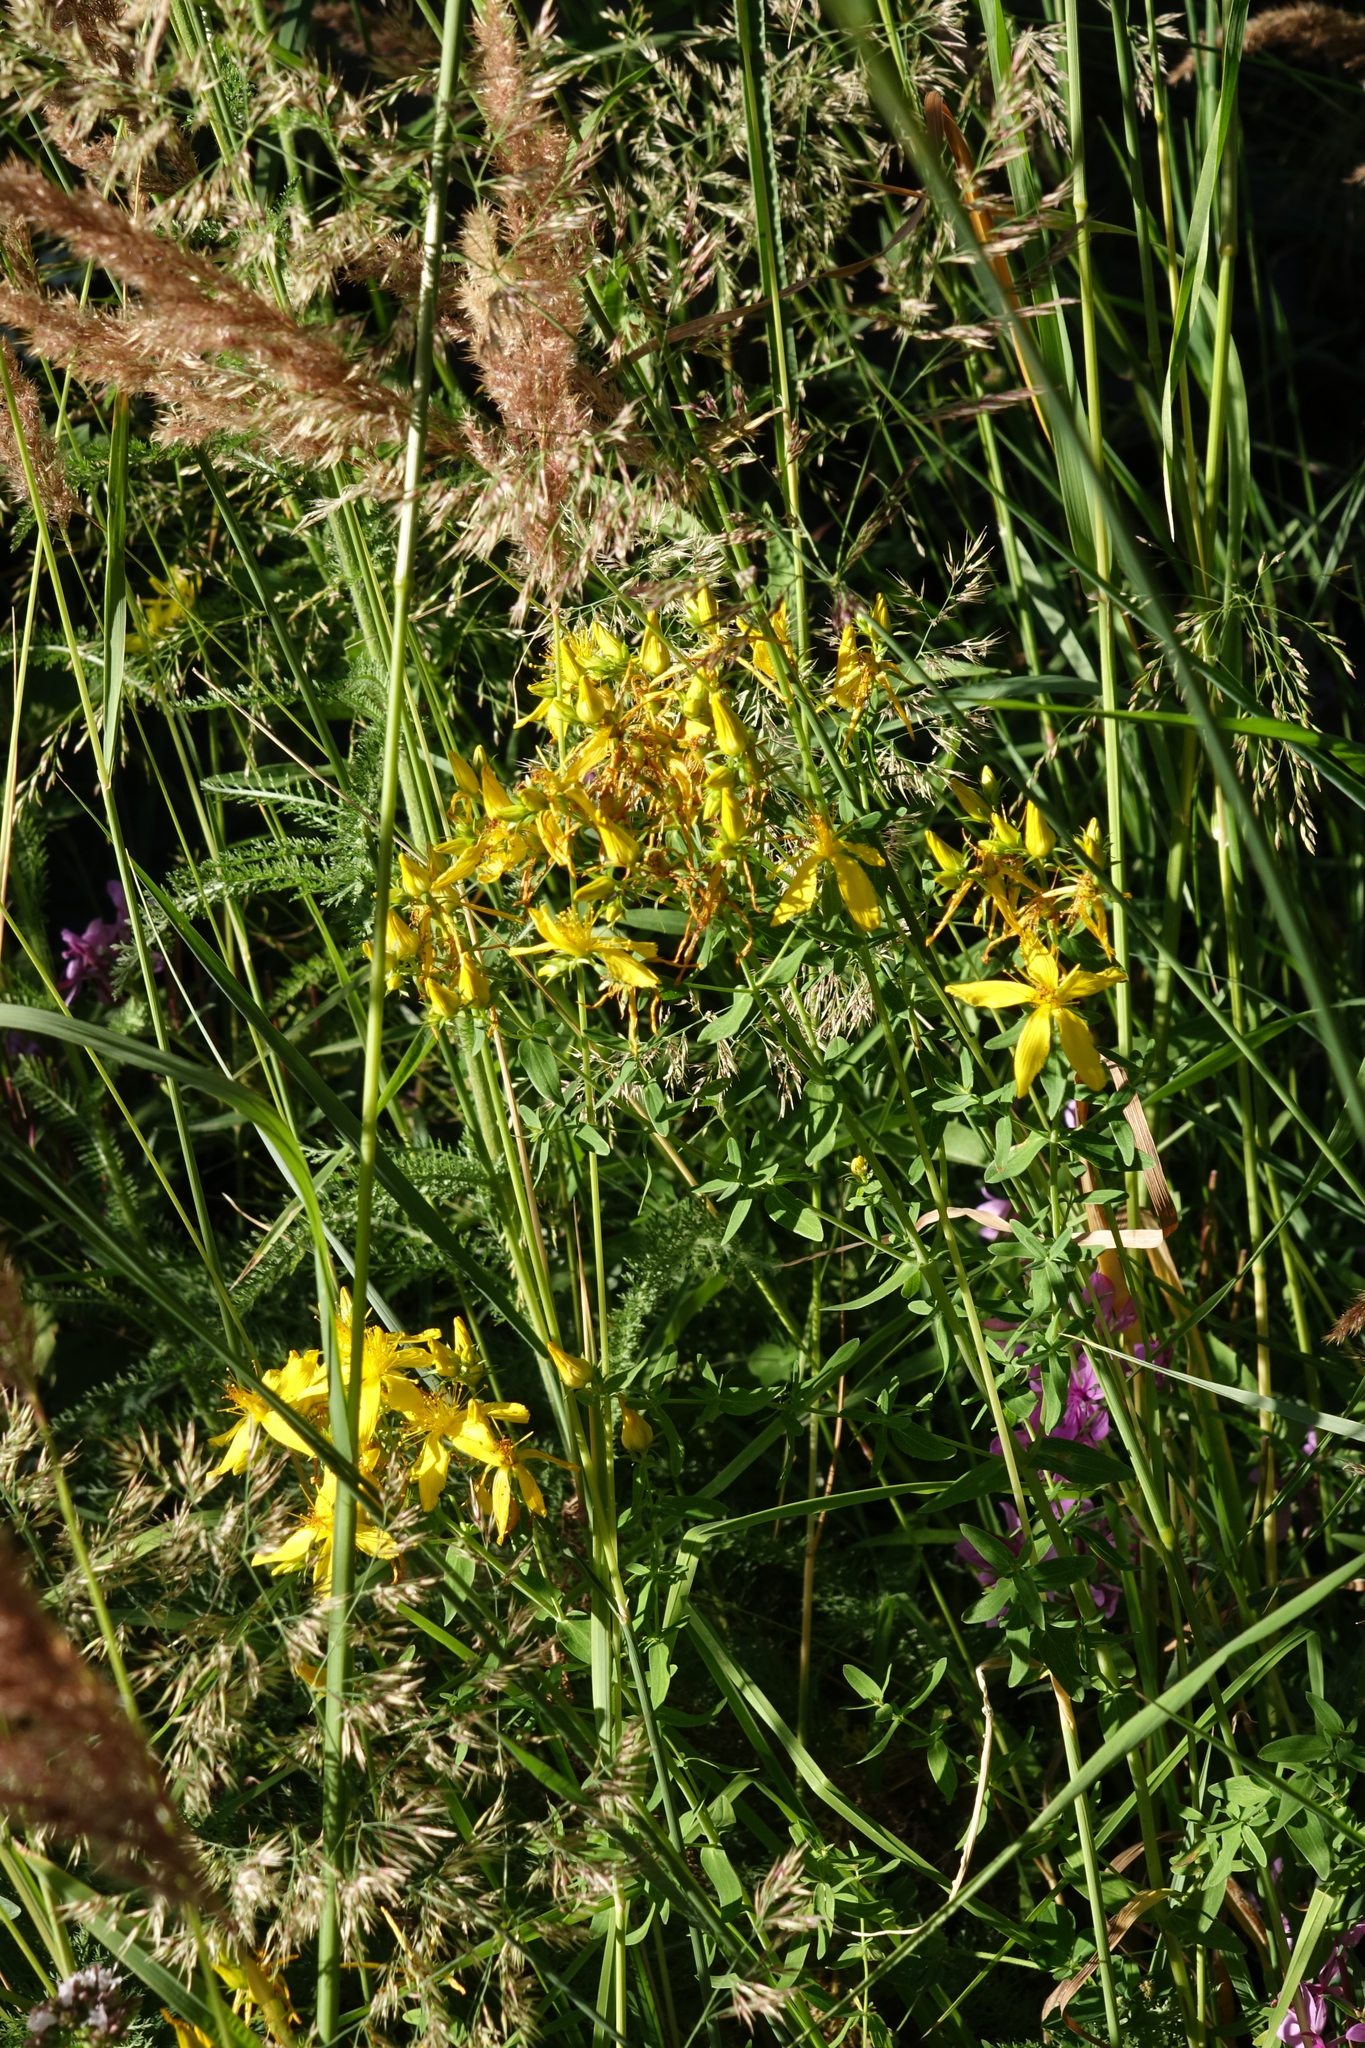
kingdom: Plantae
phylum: Tracheophyta
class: Magnoliopsida
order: Malpighiales
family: Hypericaceae
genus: Hypericum
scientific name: Hypericum perforatum
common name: Common st. johnswort
